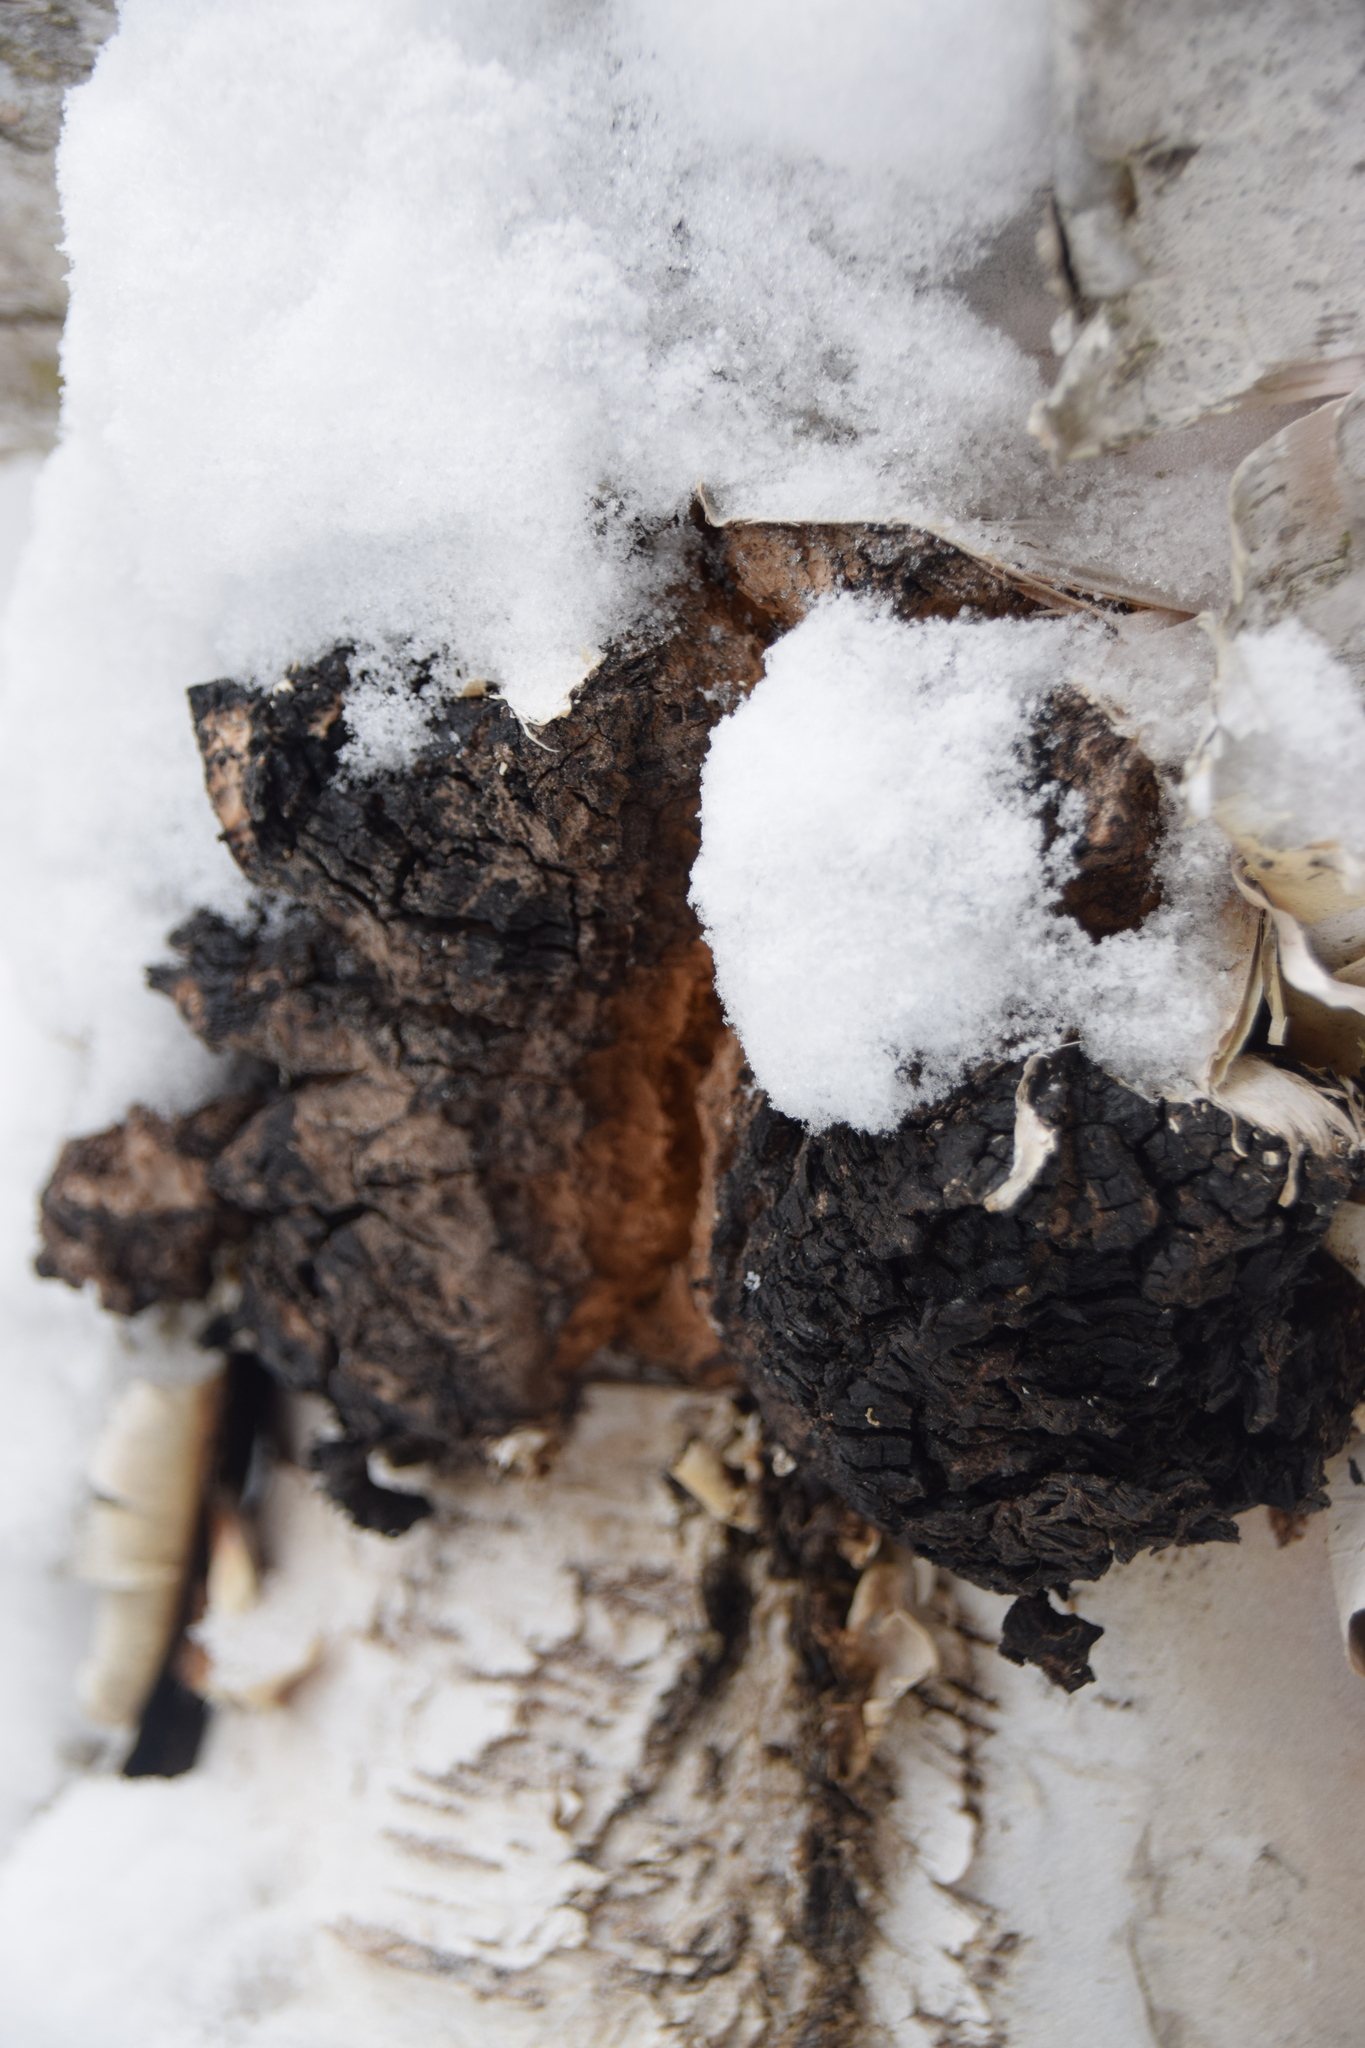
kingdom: Fungi
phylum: Basidiomycota
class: Agaricomycetes
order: Hymenochaetales
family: Hymenochaetaceae
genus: Inonotus
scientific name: Inonotus obliquus
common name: Chaga
